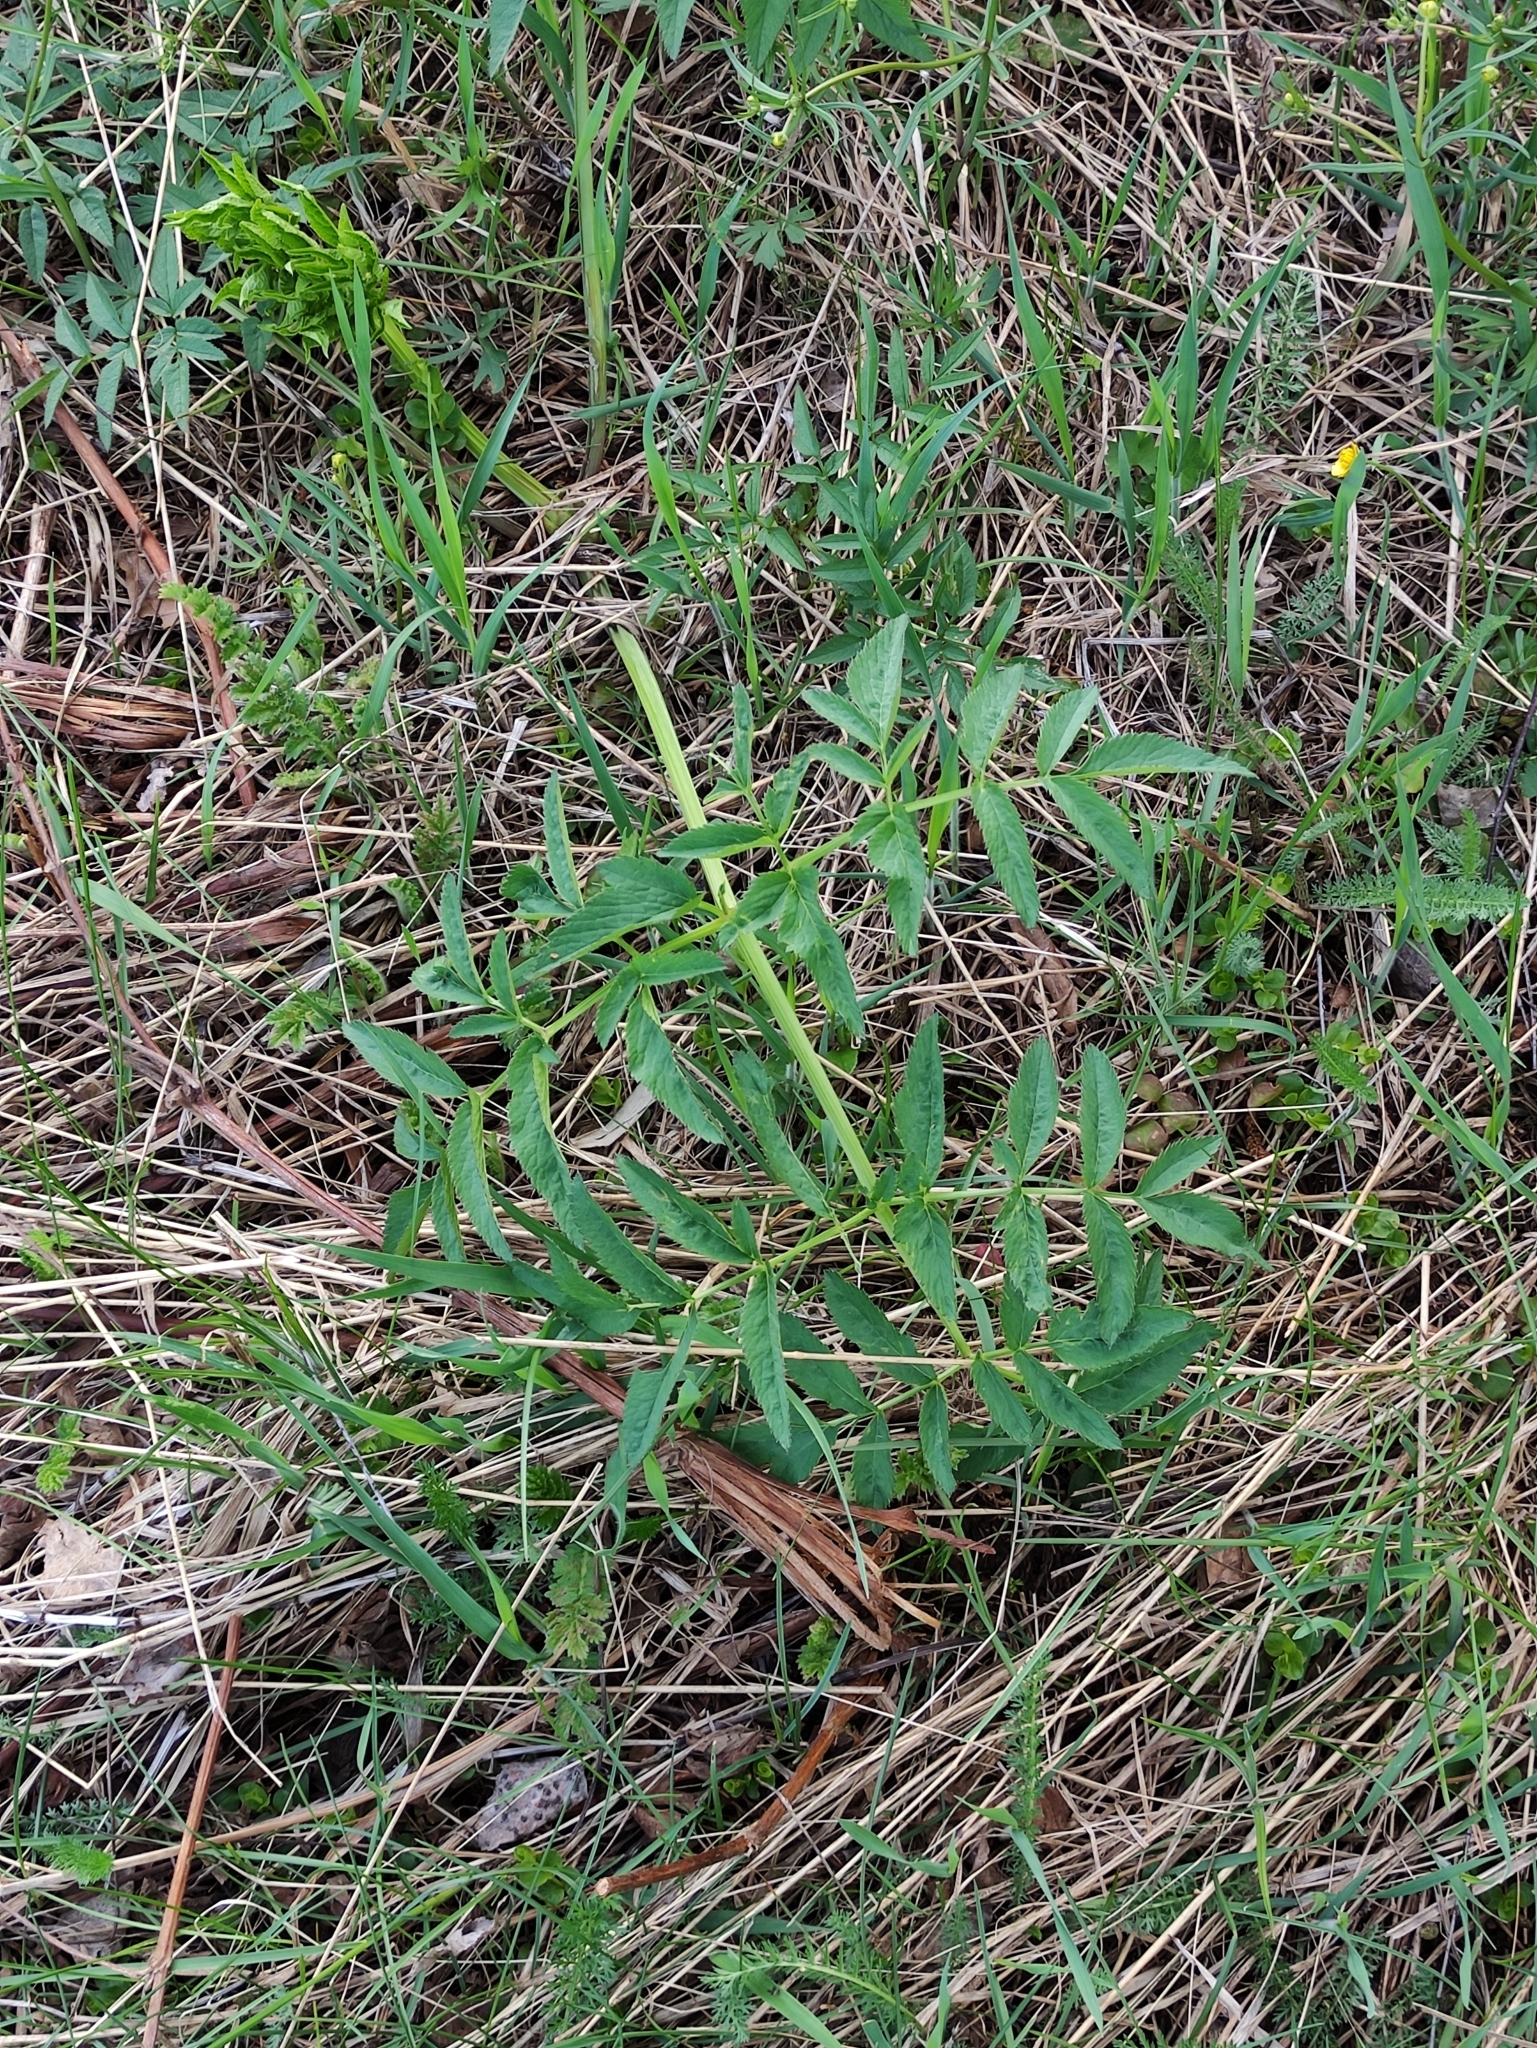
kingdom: Plantae
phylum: Tracheophyta
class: Magnoliopsida
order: Apiales
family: Apiaceae
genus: Angelica
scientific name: Angelica sylvestris
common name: Wild angelica
